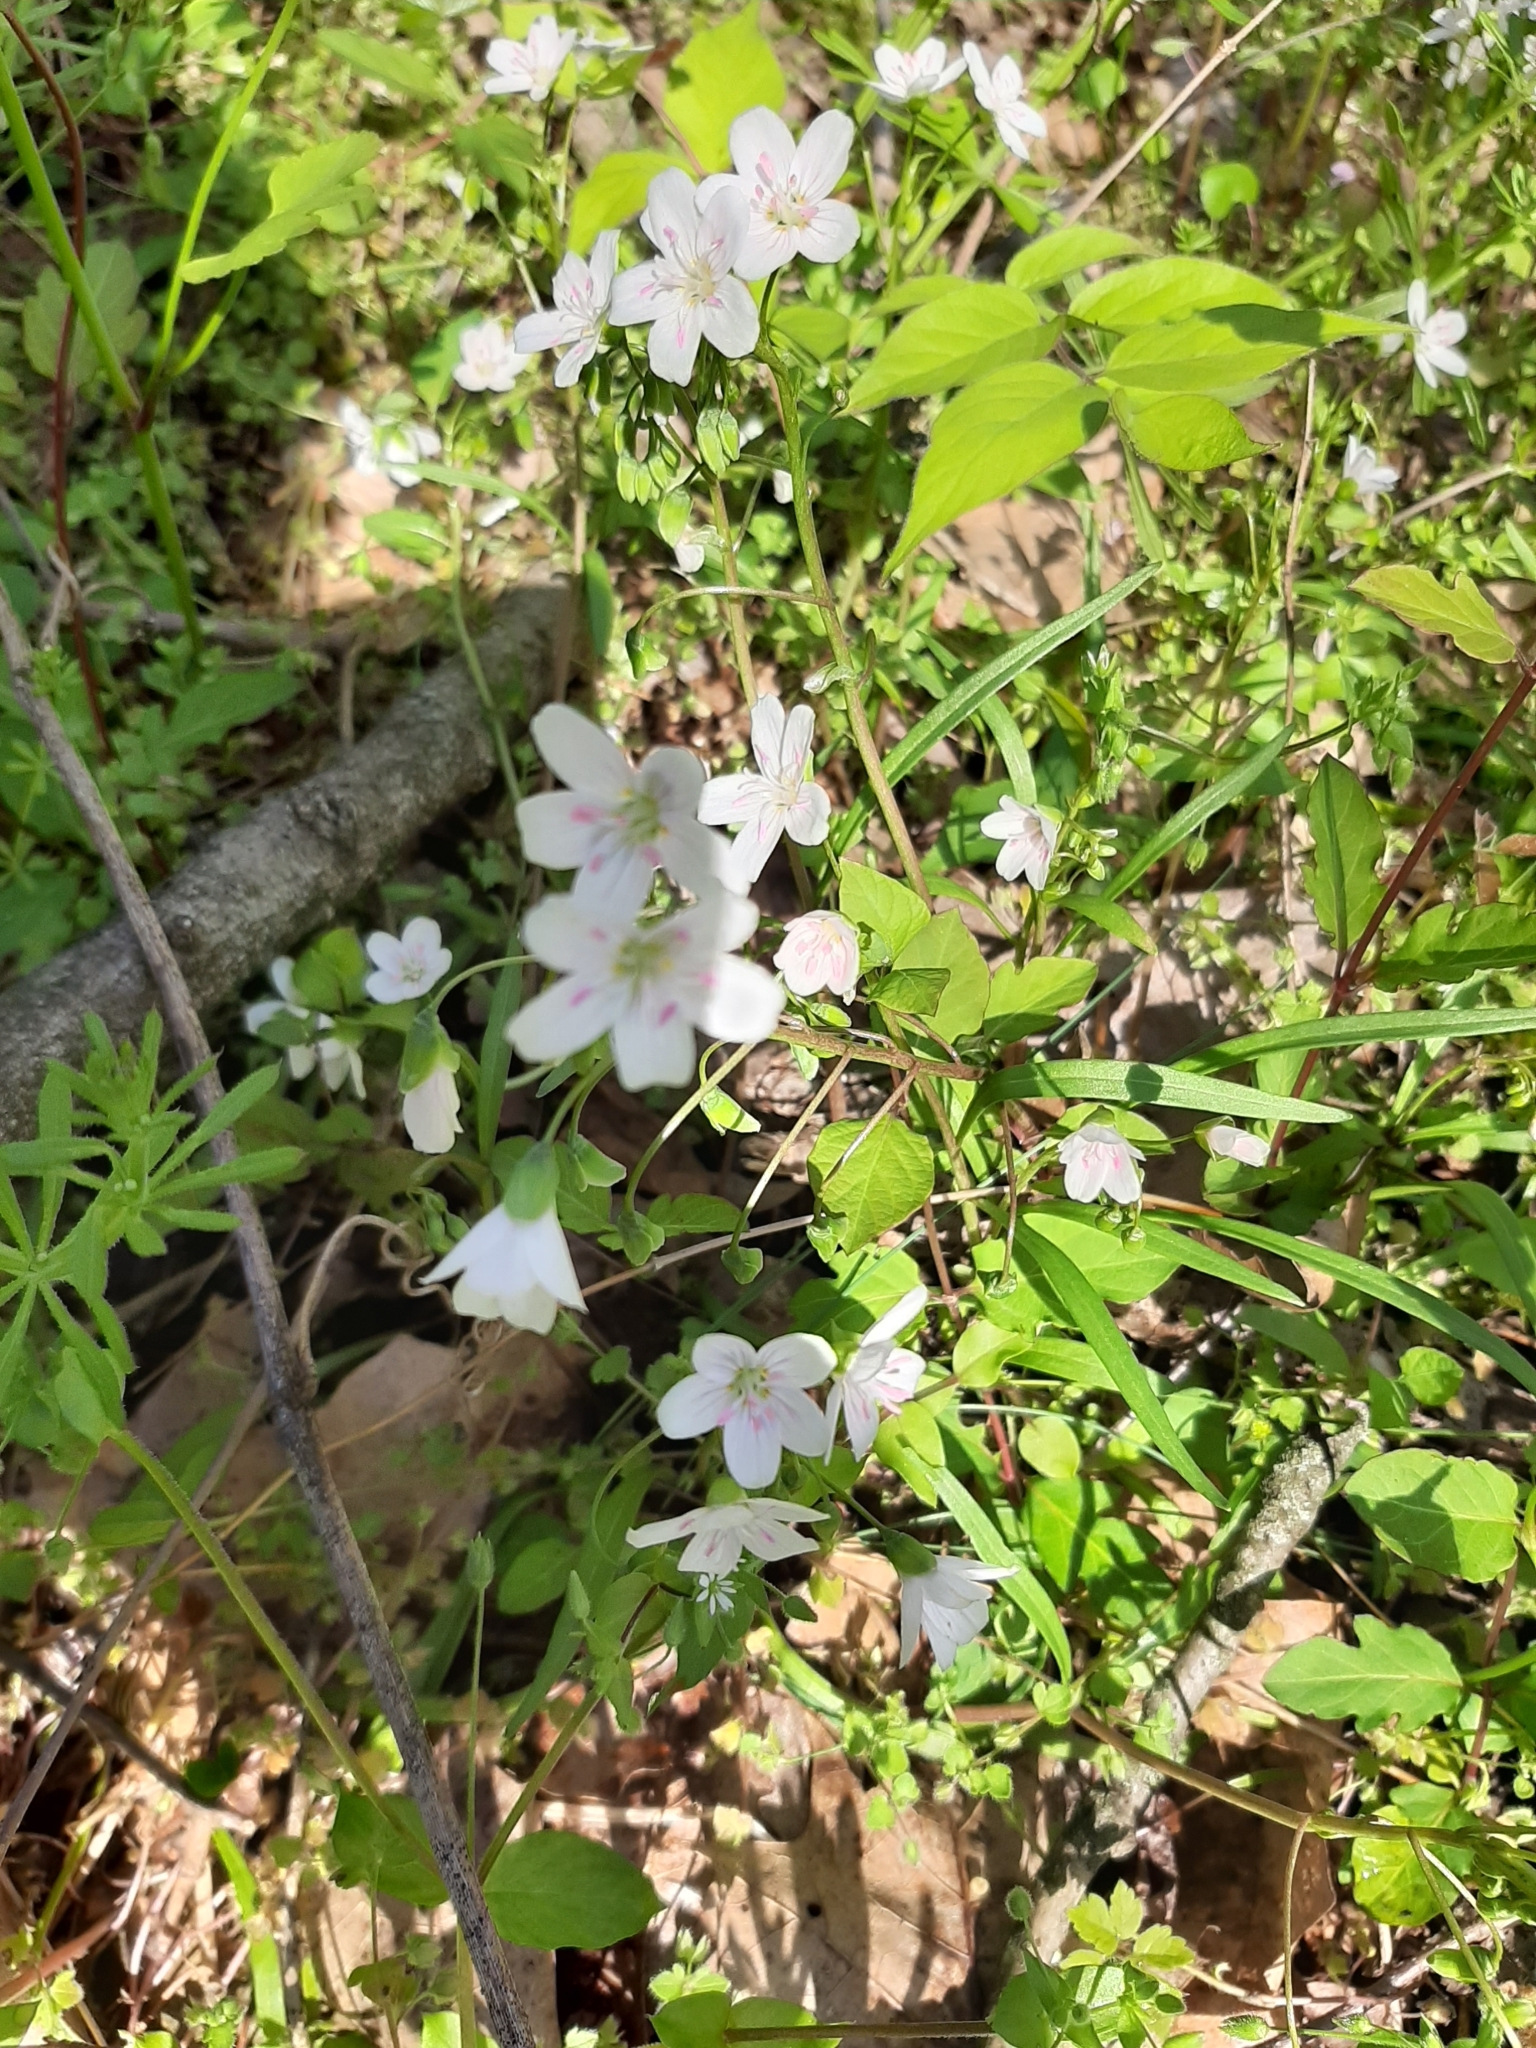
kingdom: Plantae
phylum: Tracheophyta
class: Magnoliopsida
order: Caryophyllales
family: Montiaceae
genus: Claytonia
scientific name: Claytonia virginica
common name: Virginia springbeauty
